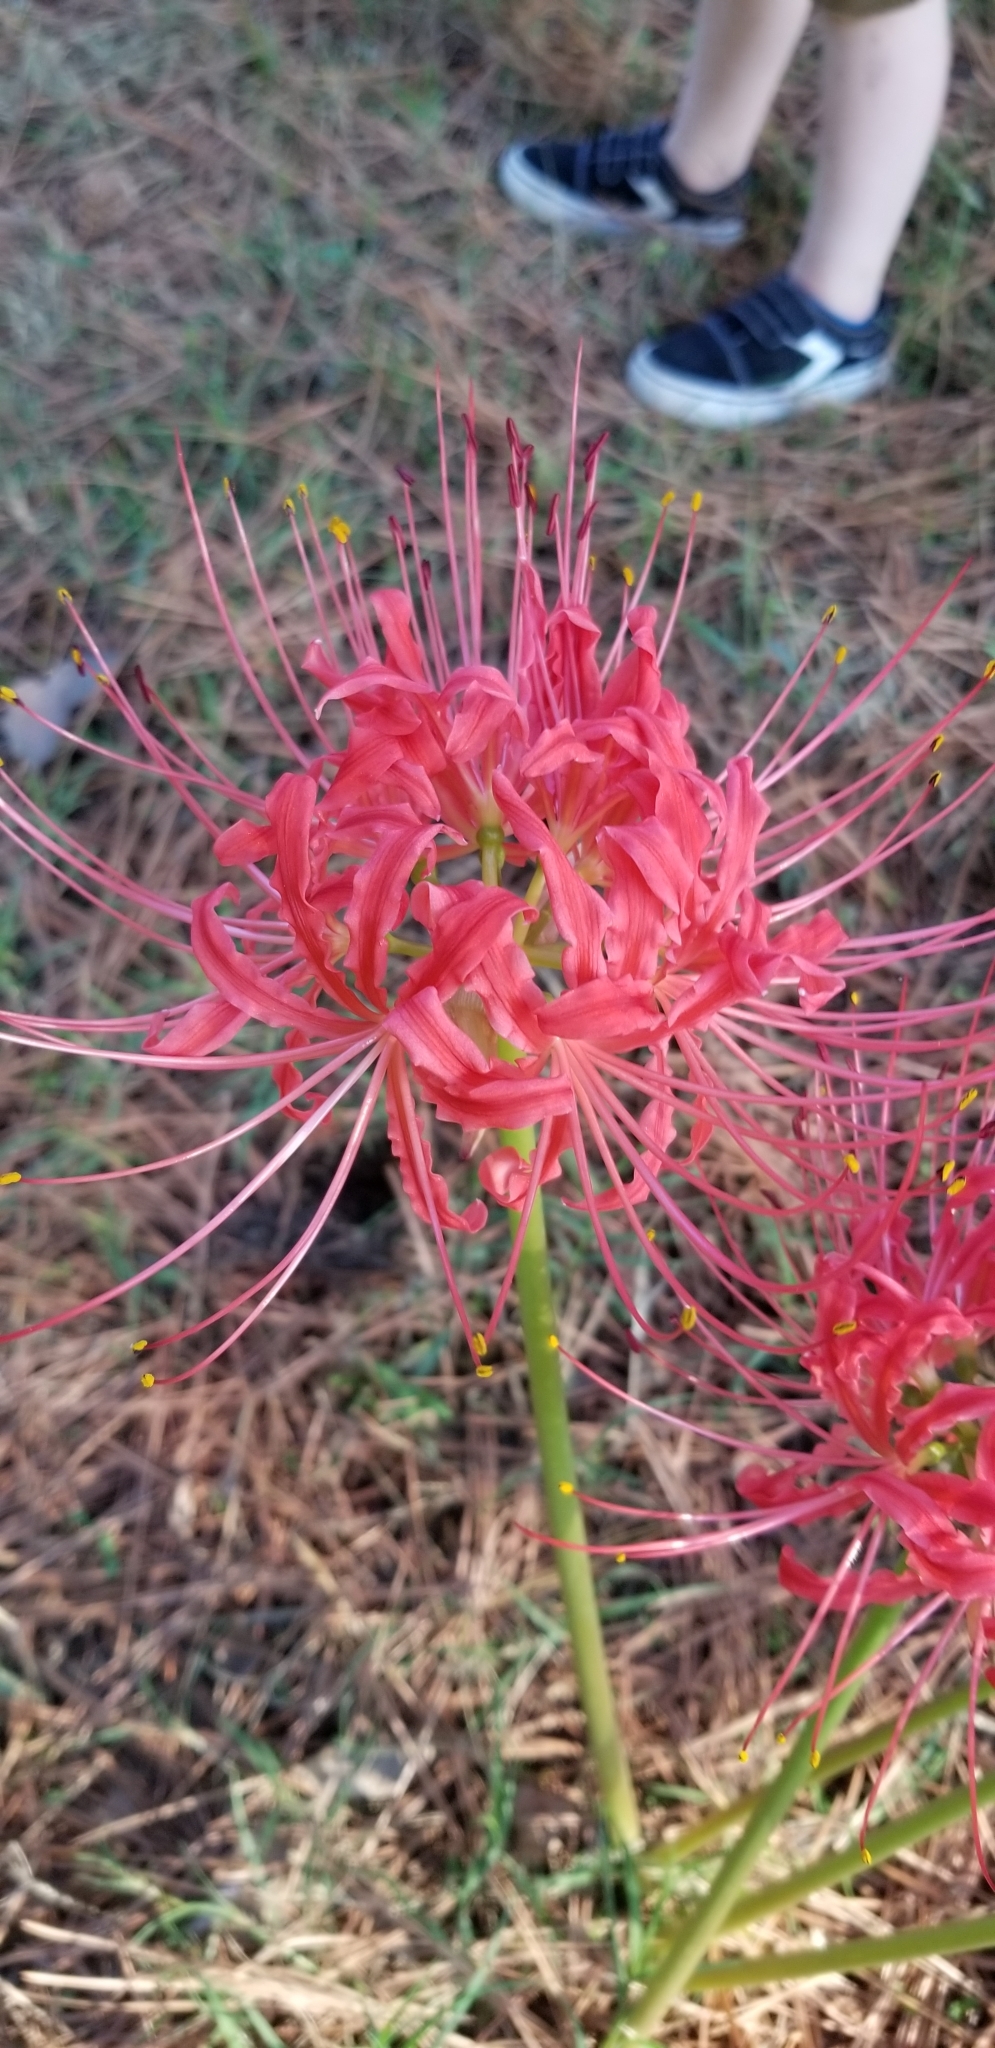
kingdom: Plantae
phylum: Tracheophyta
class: Liliopsida
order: Asparagales
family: Amaryllidaceae
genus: Lycoris
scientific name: Lycoris radiata
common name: Red spider lily
